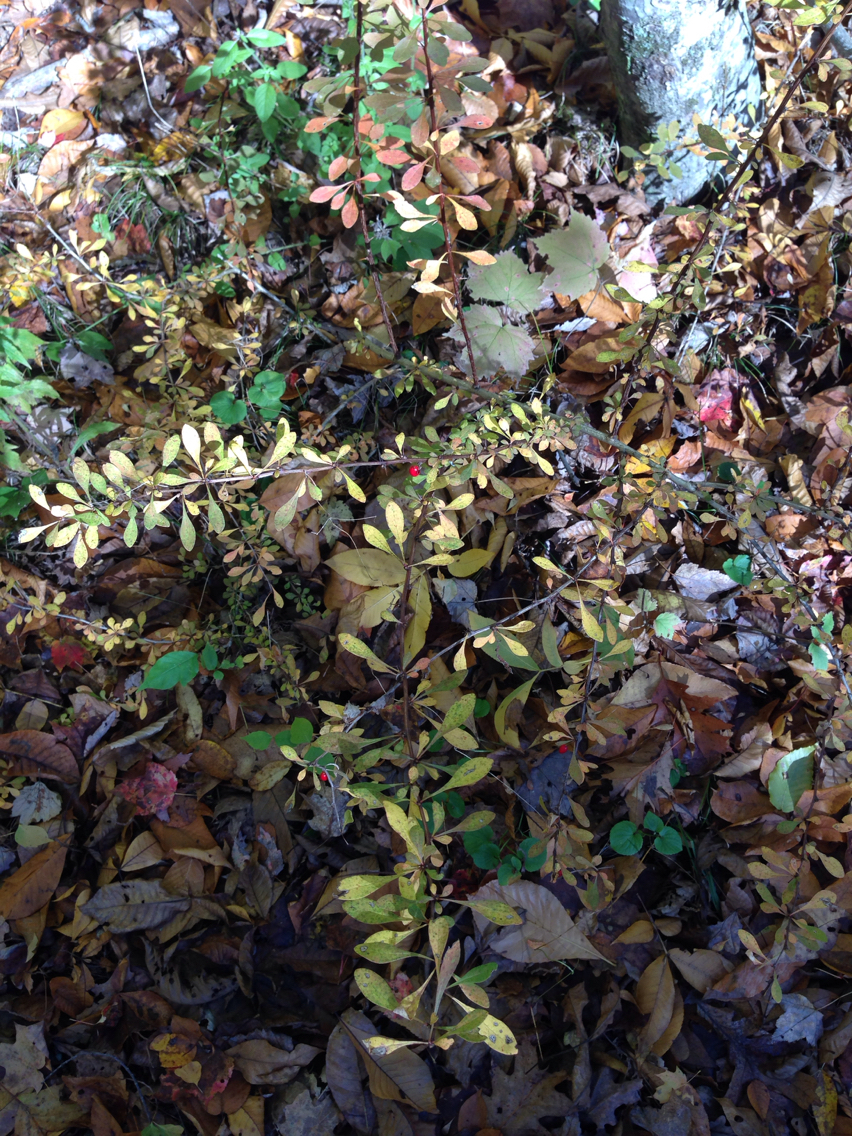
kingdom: Plantae
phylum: Tracheophyta
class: Magnoliopsida
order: Ranunculales
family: Berberidaceae
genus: Berberis
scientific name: Berberis thunbergii
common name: Japanese barberry
